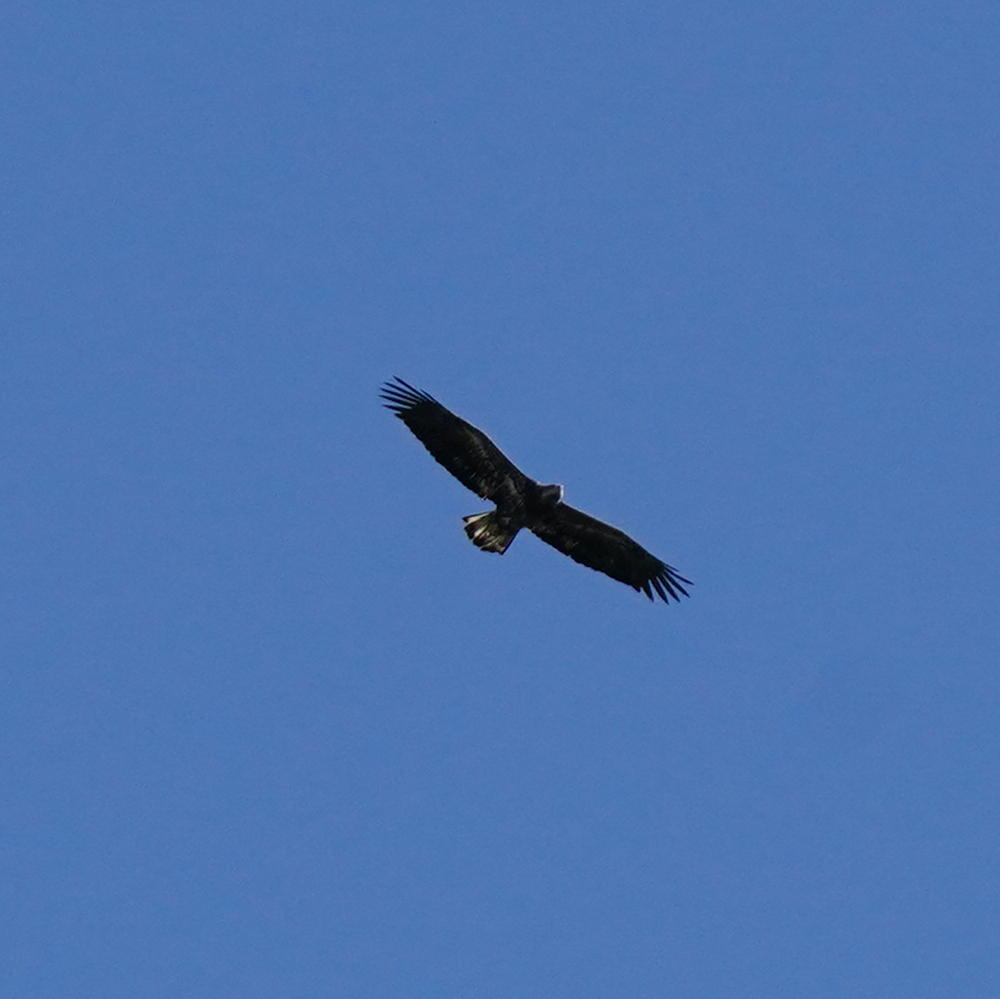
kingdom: Animalia
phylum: Chordata
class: Aves
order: Accipitriformes
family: Accipitridae
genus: Haliaeetus
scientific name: Haliaeetus leucocephalus
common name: Bald eagle
